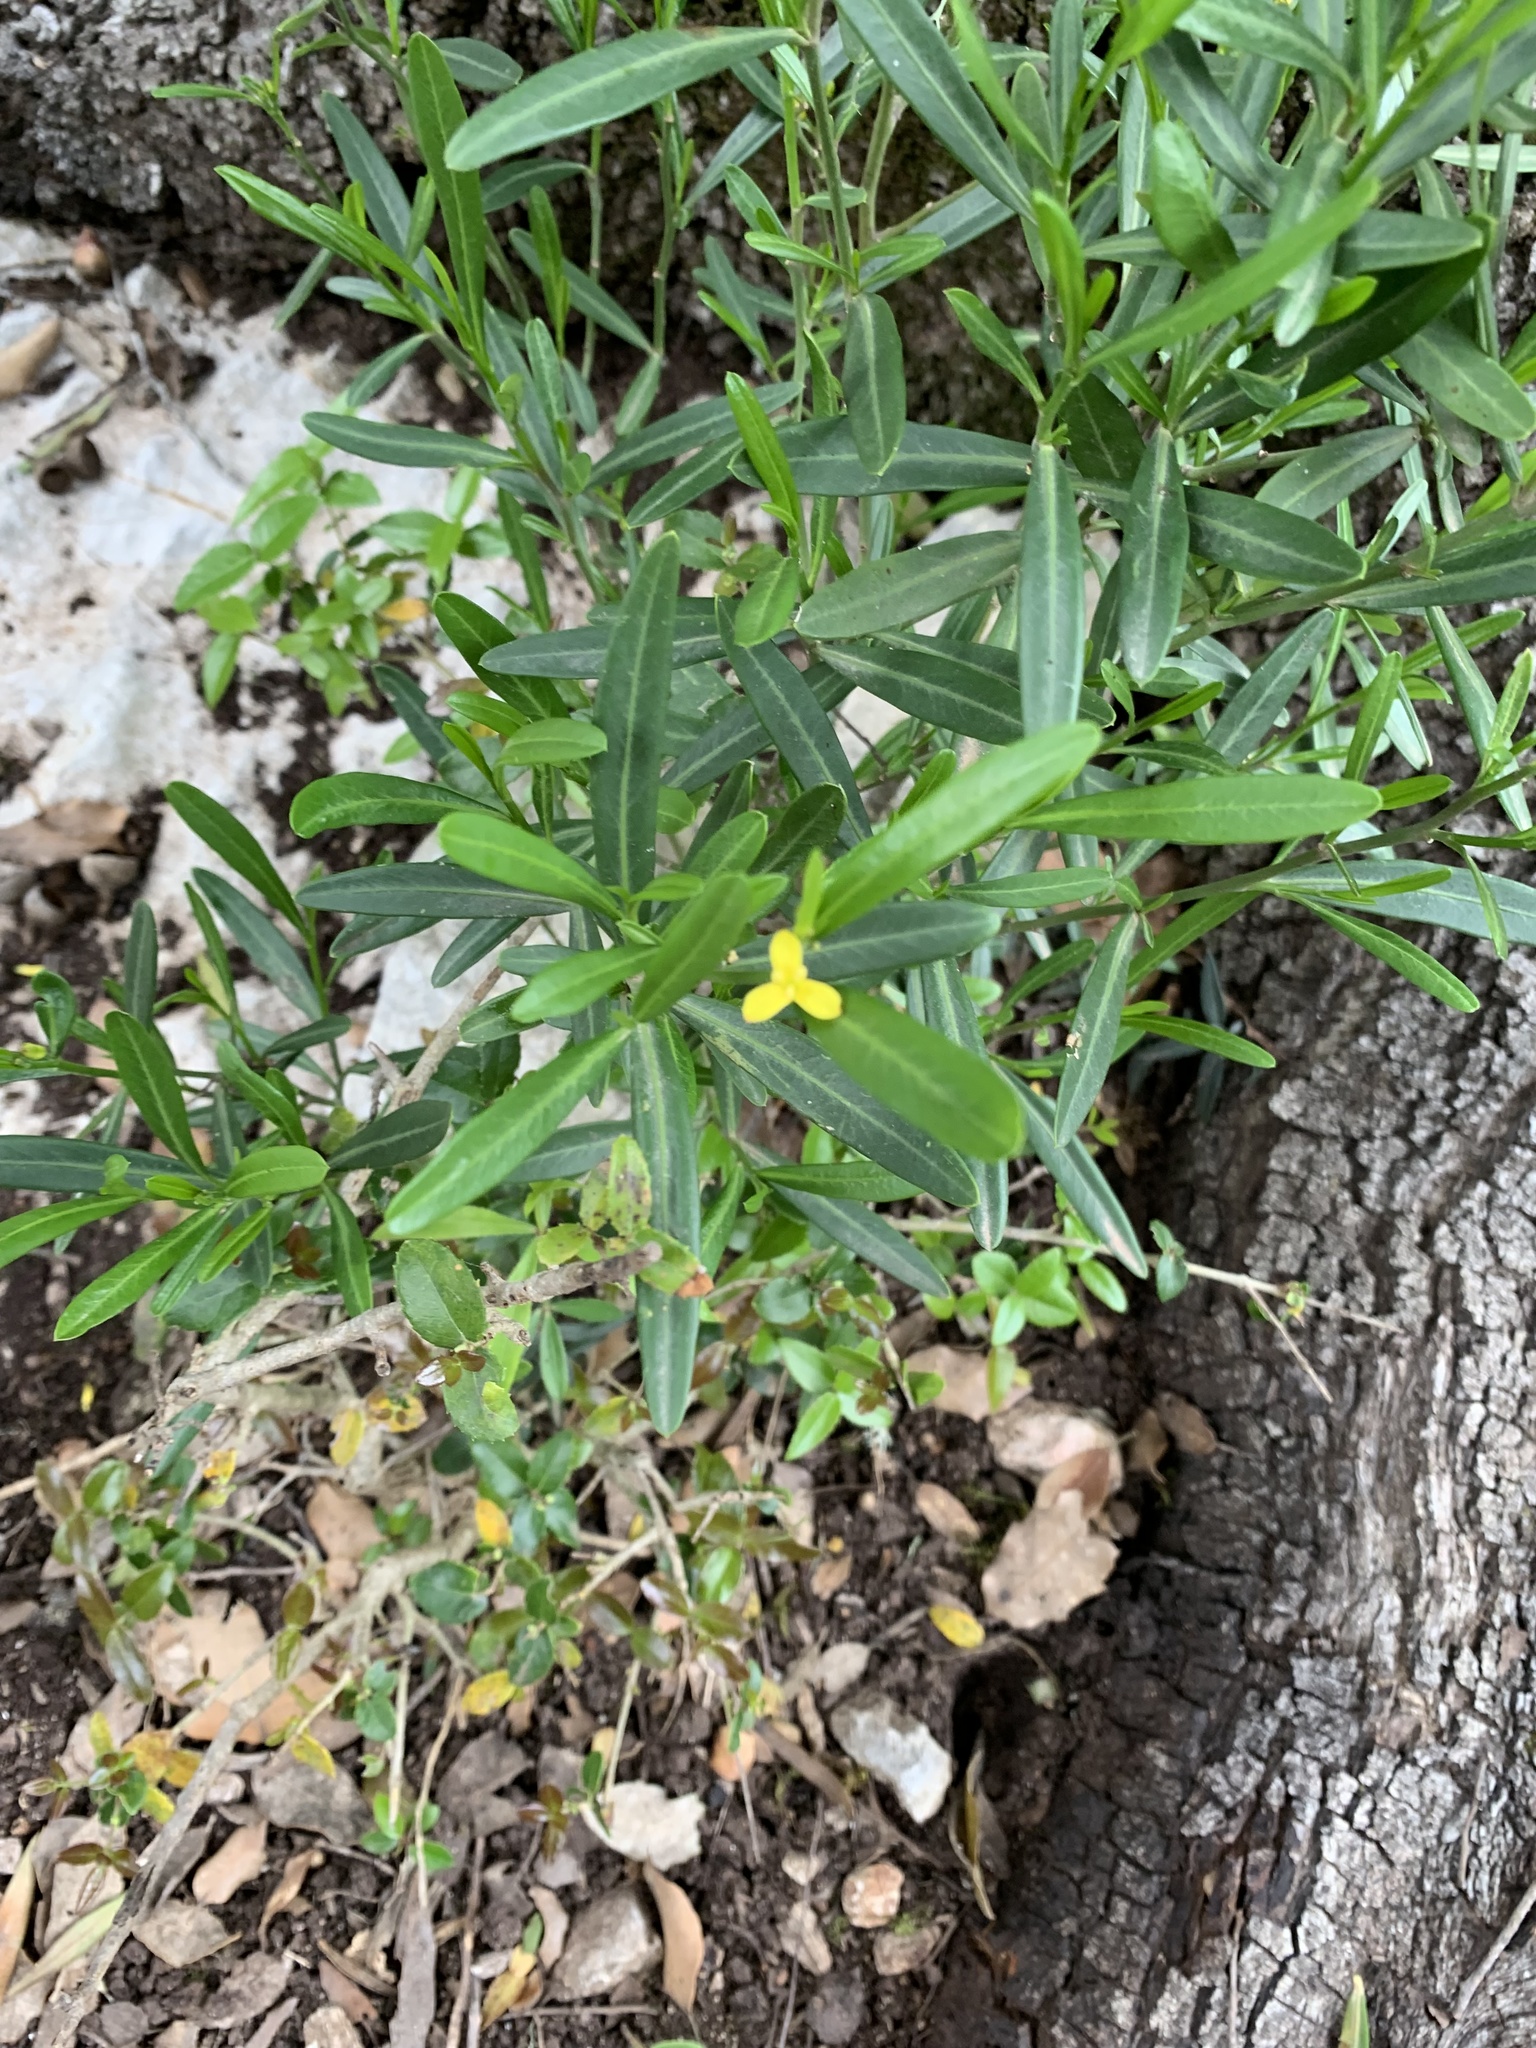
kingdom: Plantae
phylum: Tracheophyta
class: Magnoliopsida
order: Sapindales
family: Rutaceae
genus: Cneorum
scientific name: Cneorum tricoccon
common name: Spurge olive
